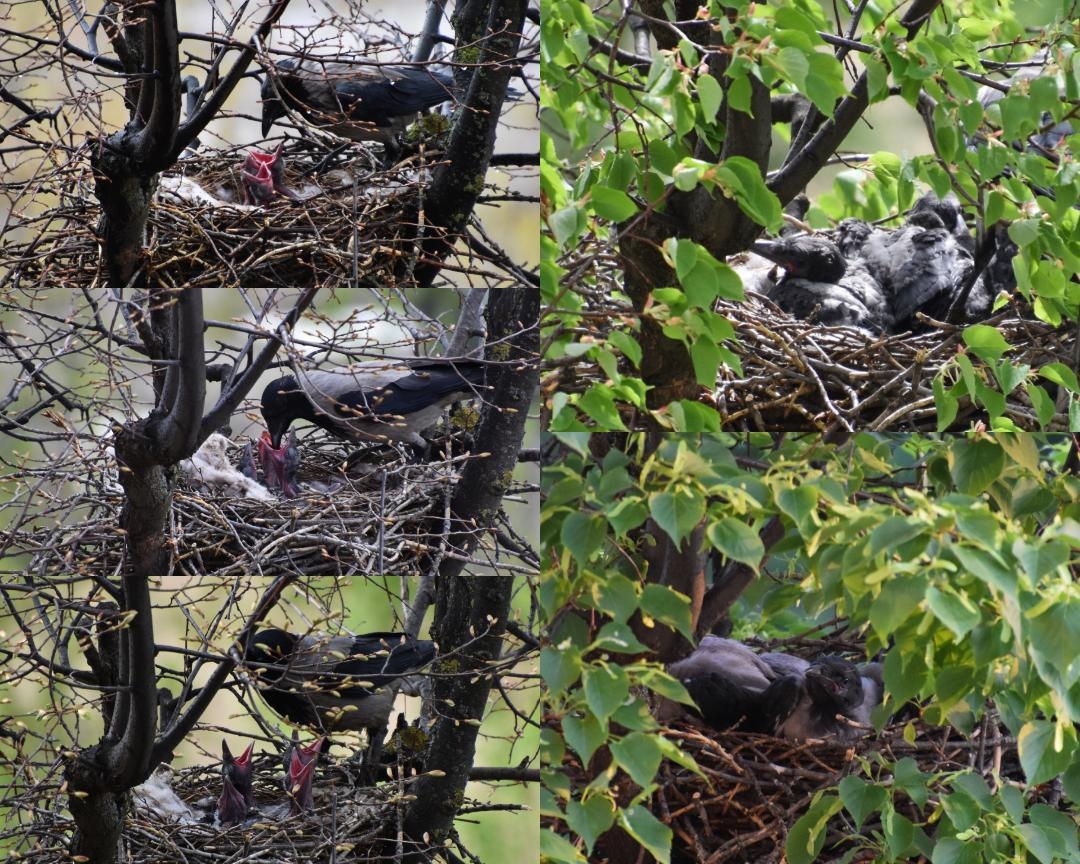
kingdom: Animalia
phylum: Chordata
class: Aves
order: Passeriformes
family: Corvidae
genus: Corvus
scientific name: Corvus cornix
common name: Hooded crow
